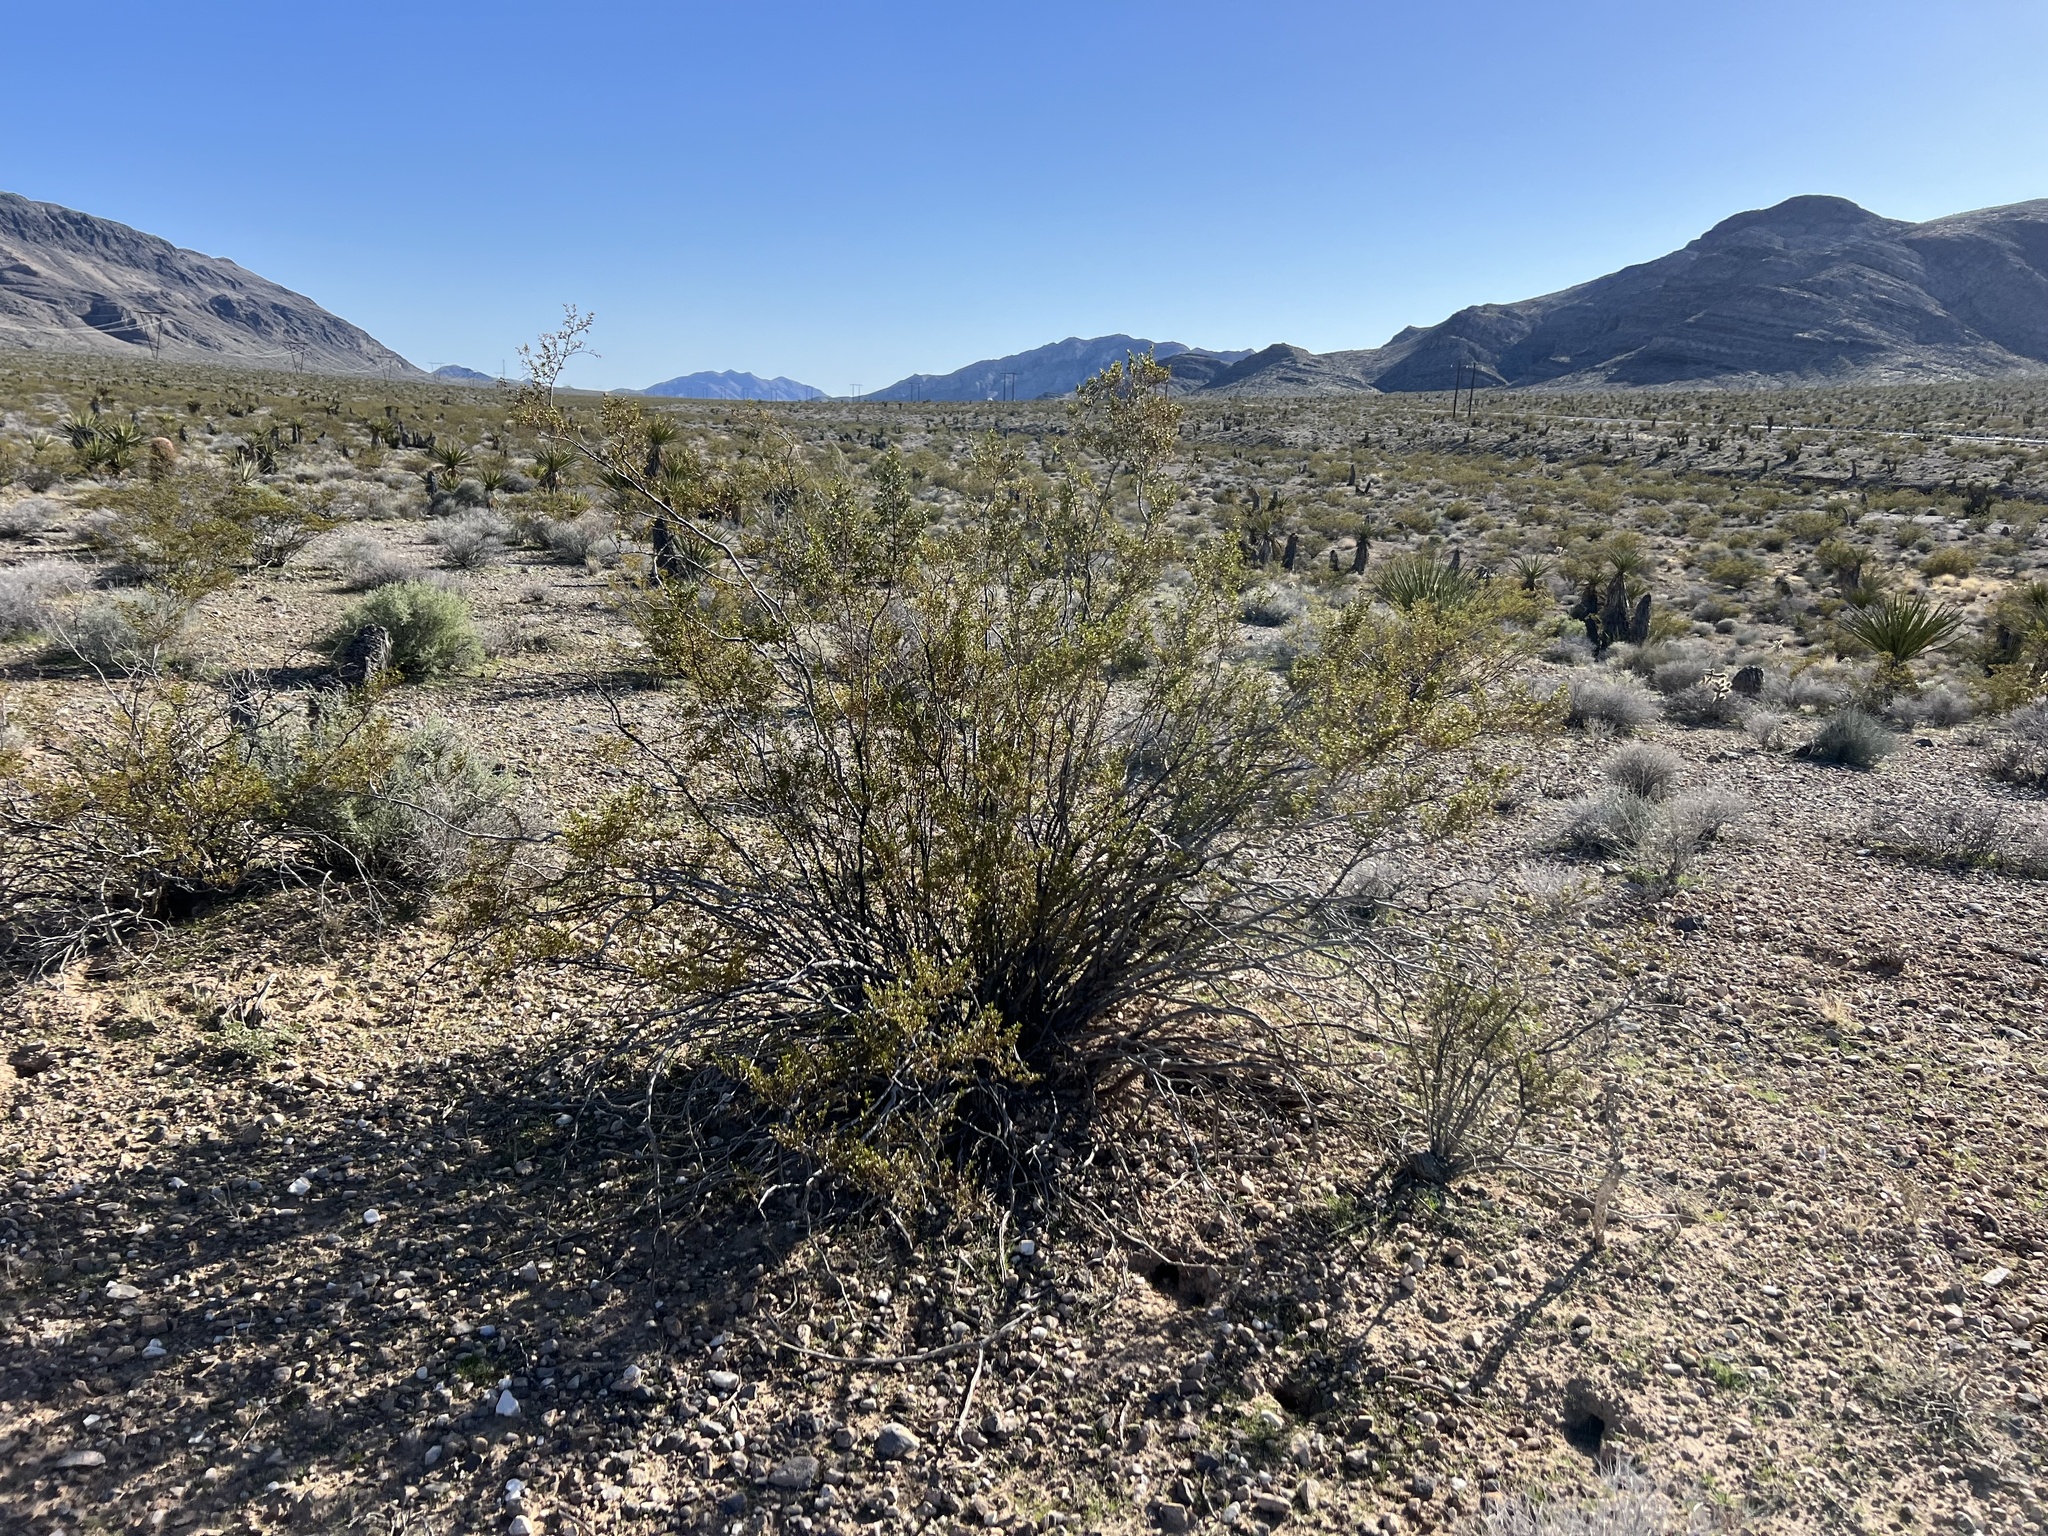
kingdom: Plantae
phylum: Tracheophyta
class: Magnoliopsida
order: Zygophyllales
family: Zygophyllaceae
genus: Larrea
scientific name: Larrea tridentata
